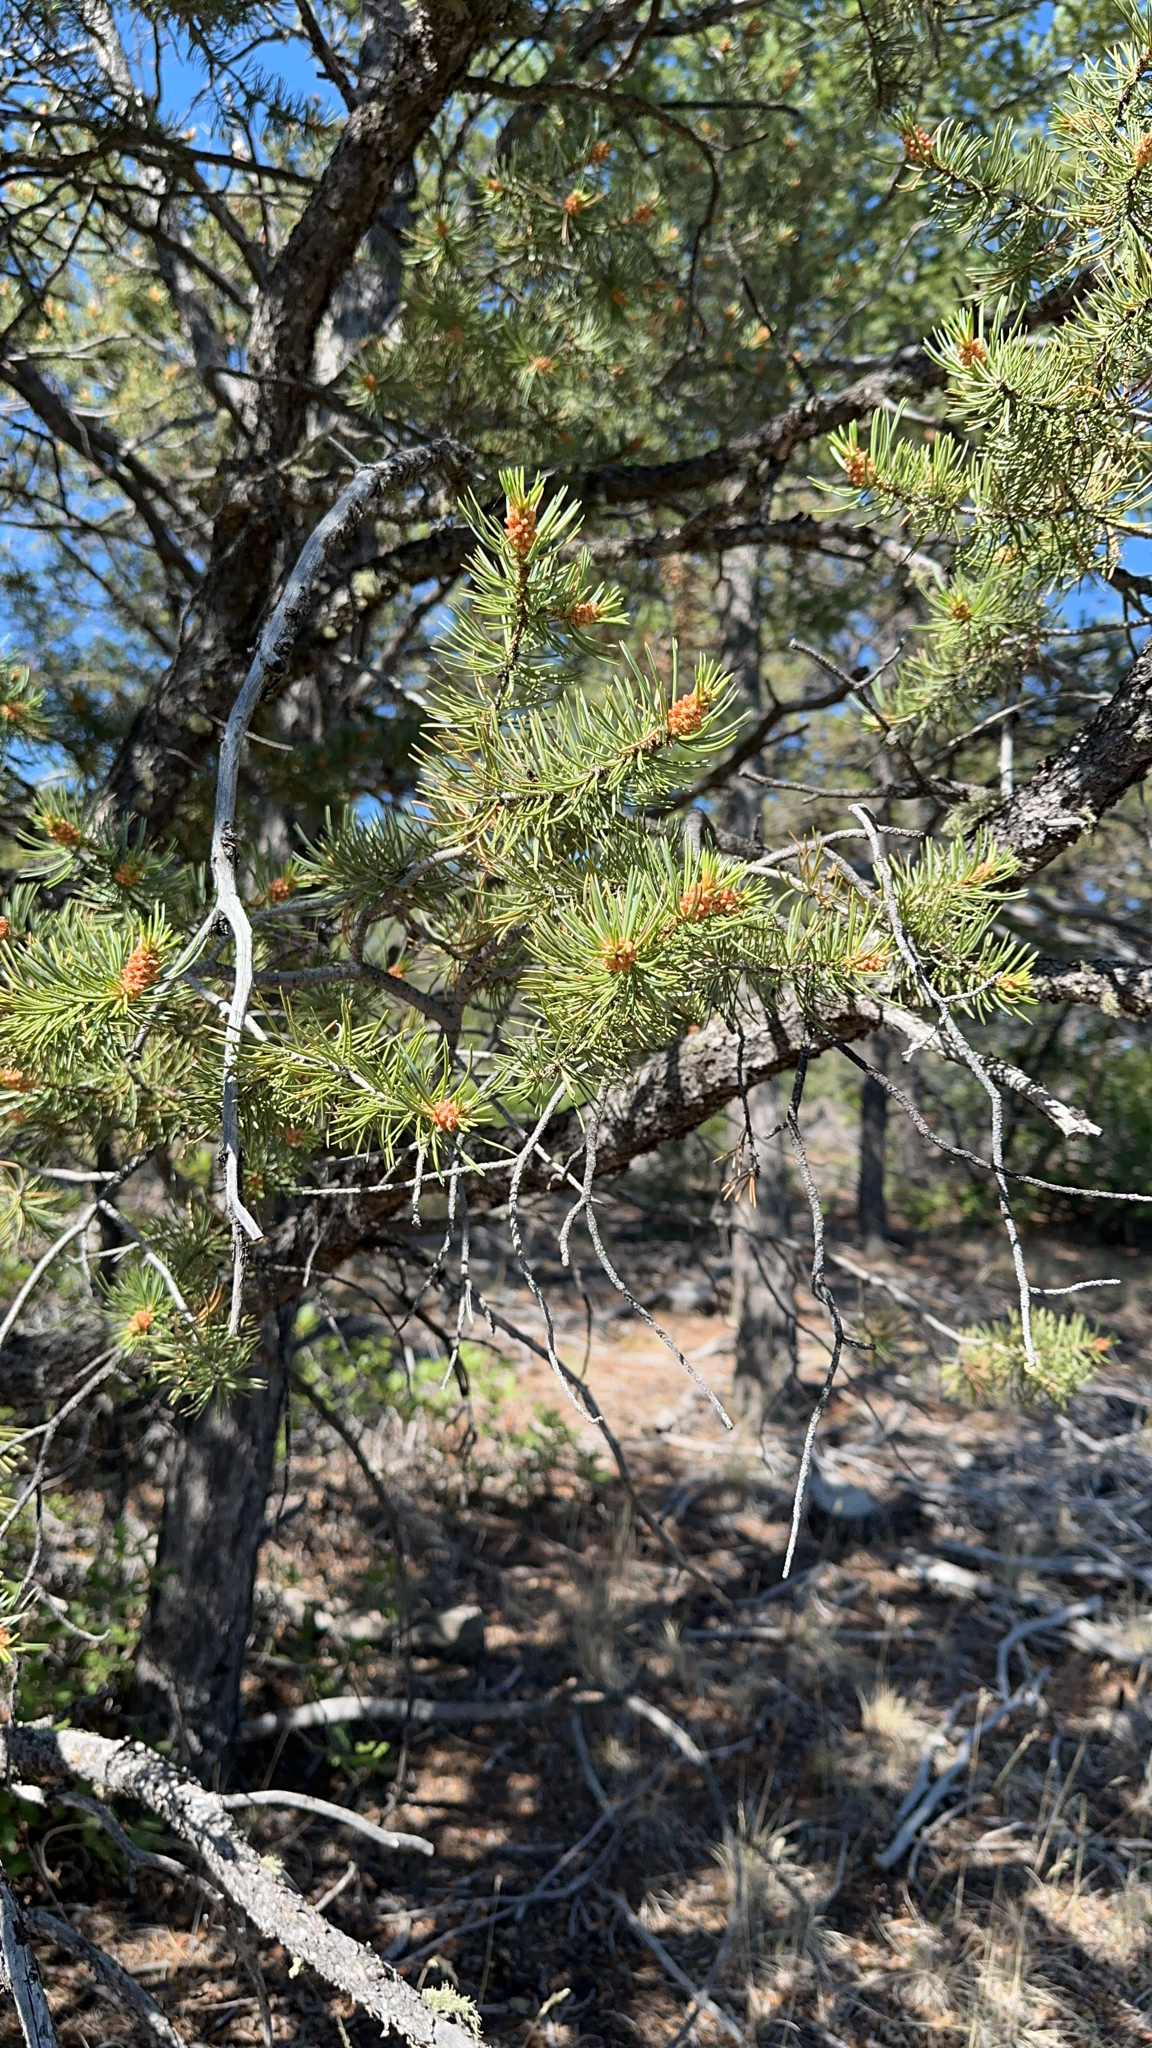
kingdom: Plantae
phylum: Tracheophyta
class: Pinopsida
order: Pinales
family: Pinaceae
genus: Pinus
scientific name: Pinus edulis
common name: Colorado pinyon
